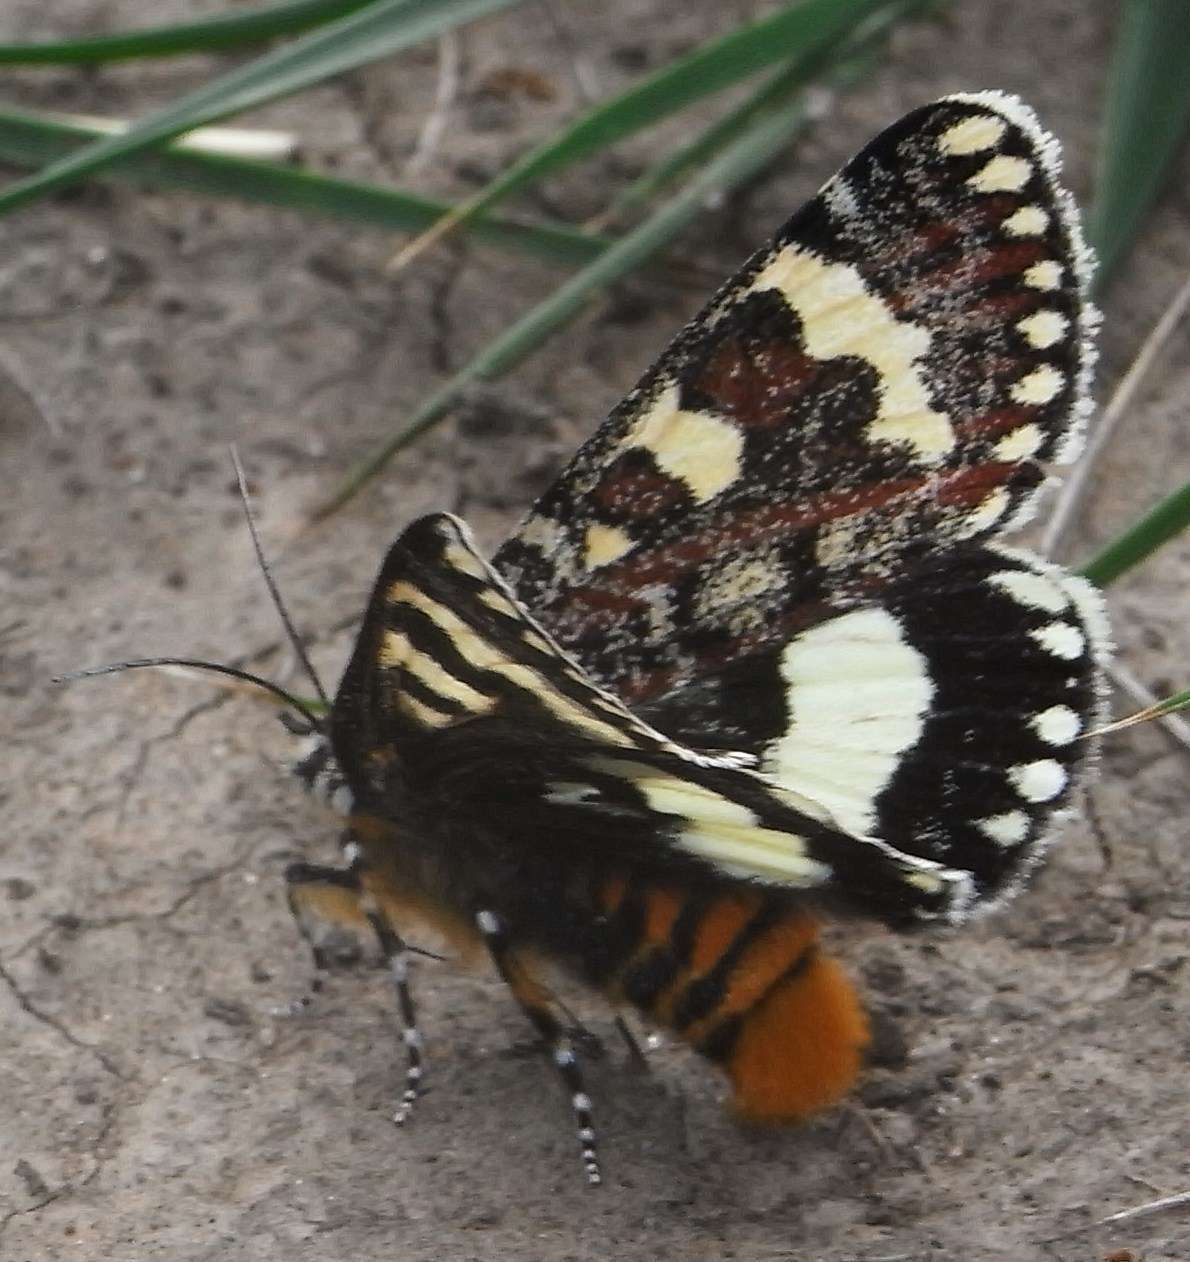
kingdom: Animalia
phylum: Arthropoda
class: Insecta
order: Lepidoptera
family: Noctuidae
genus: Apina
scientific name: Apina callisto
